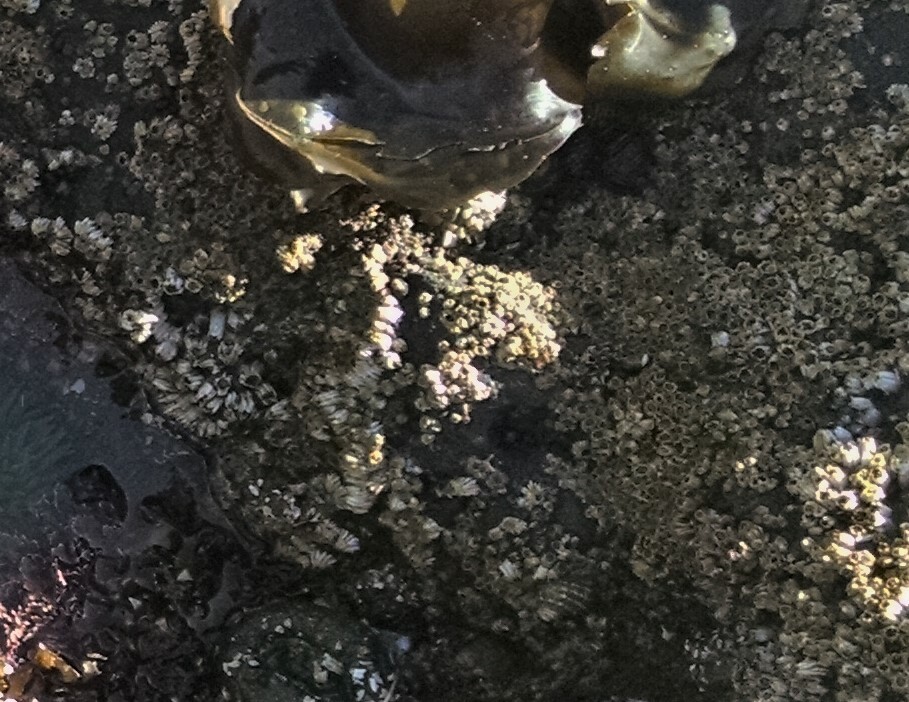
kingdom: Animalia
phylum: Arthropoda
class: Maxillopoda
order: Sessilia
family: Balanidae
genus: Balanus
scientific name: Balanus glandula
